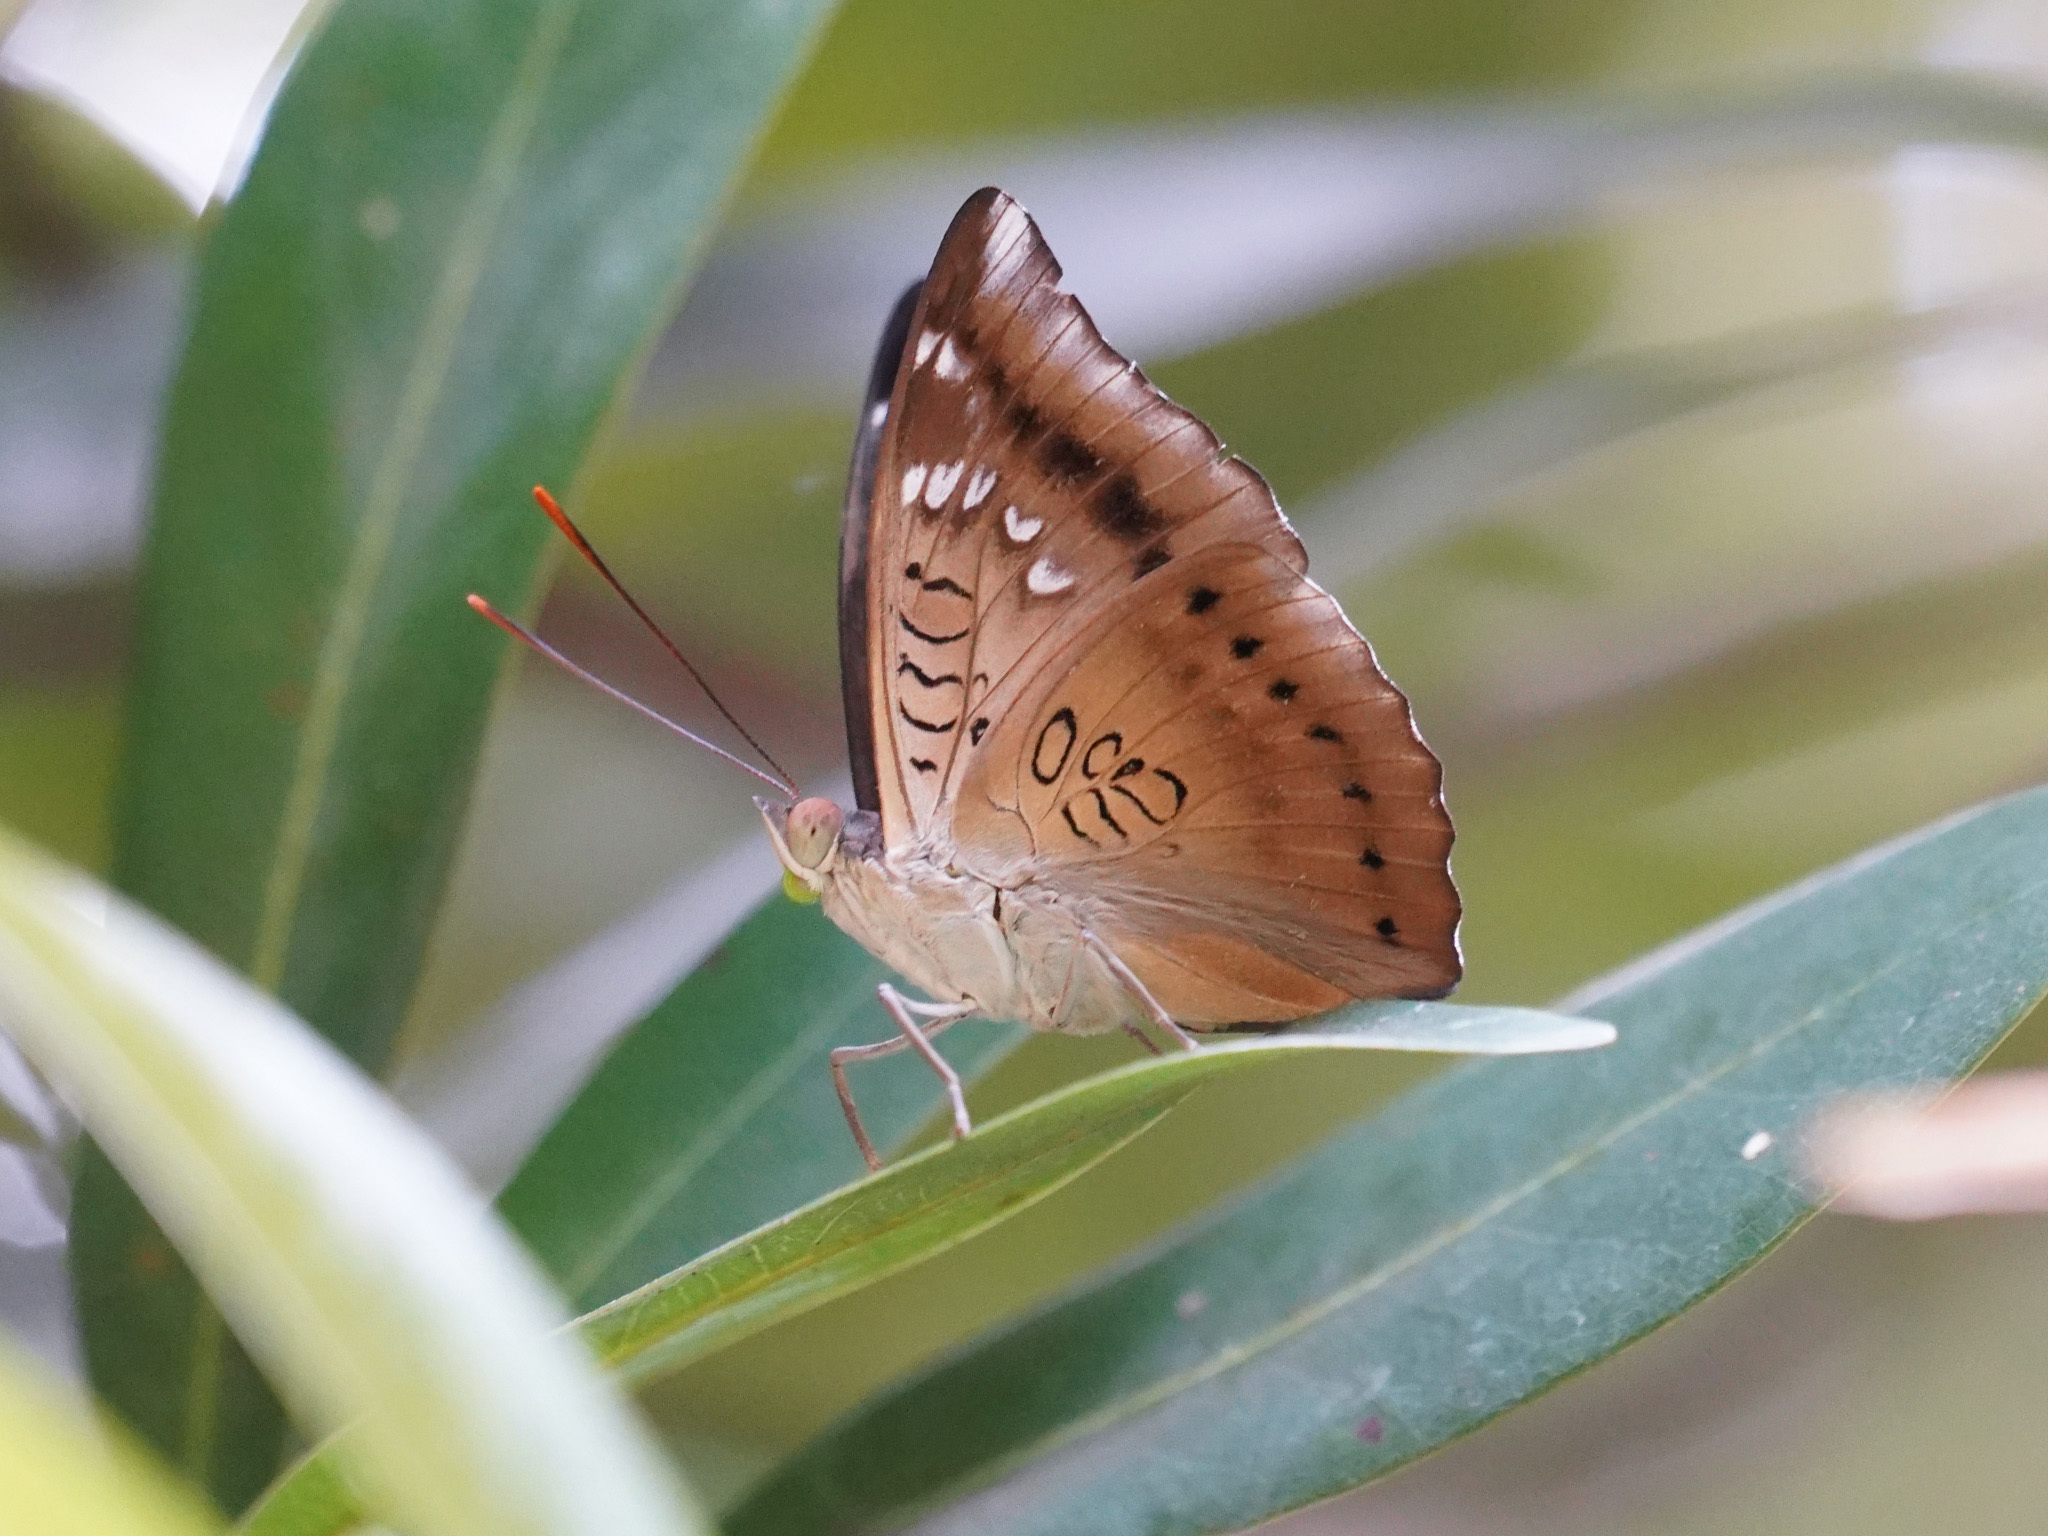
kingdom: Animalia
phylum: Arthropoda
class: Insecta
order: Lepidoptera
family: Nymphalidae
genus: Euthalia
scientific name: Euthalia aconthea
